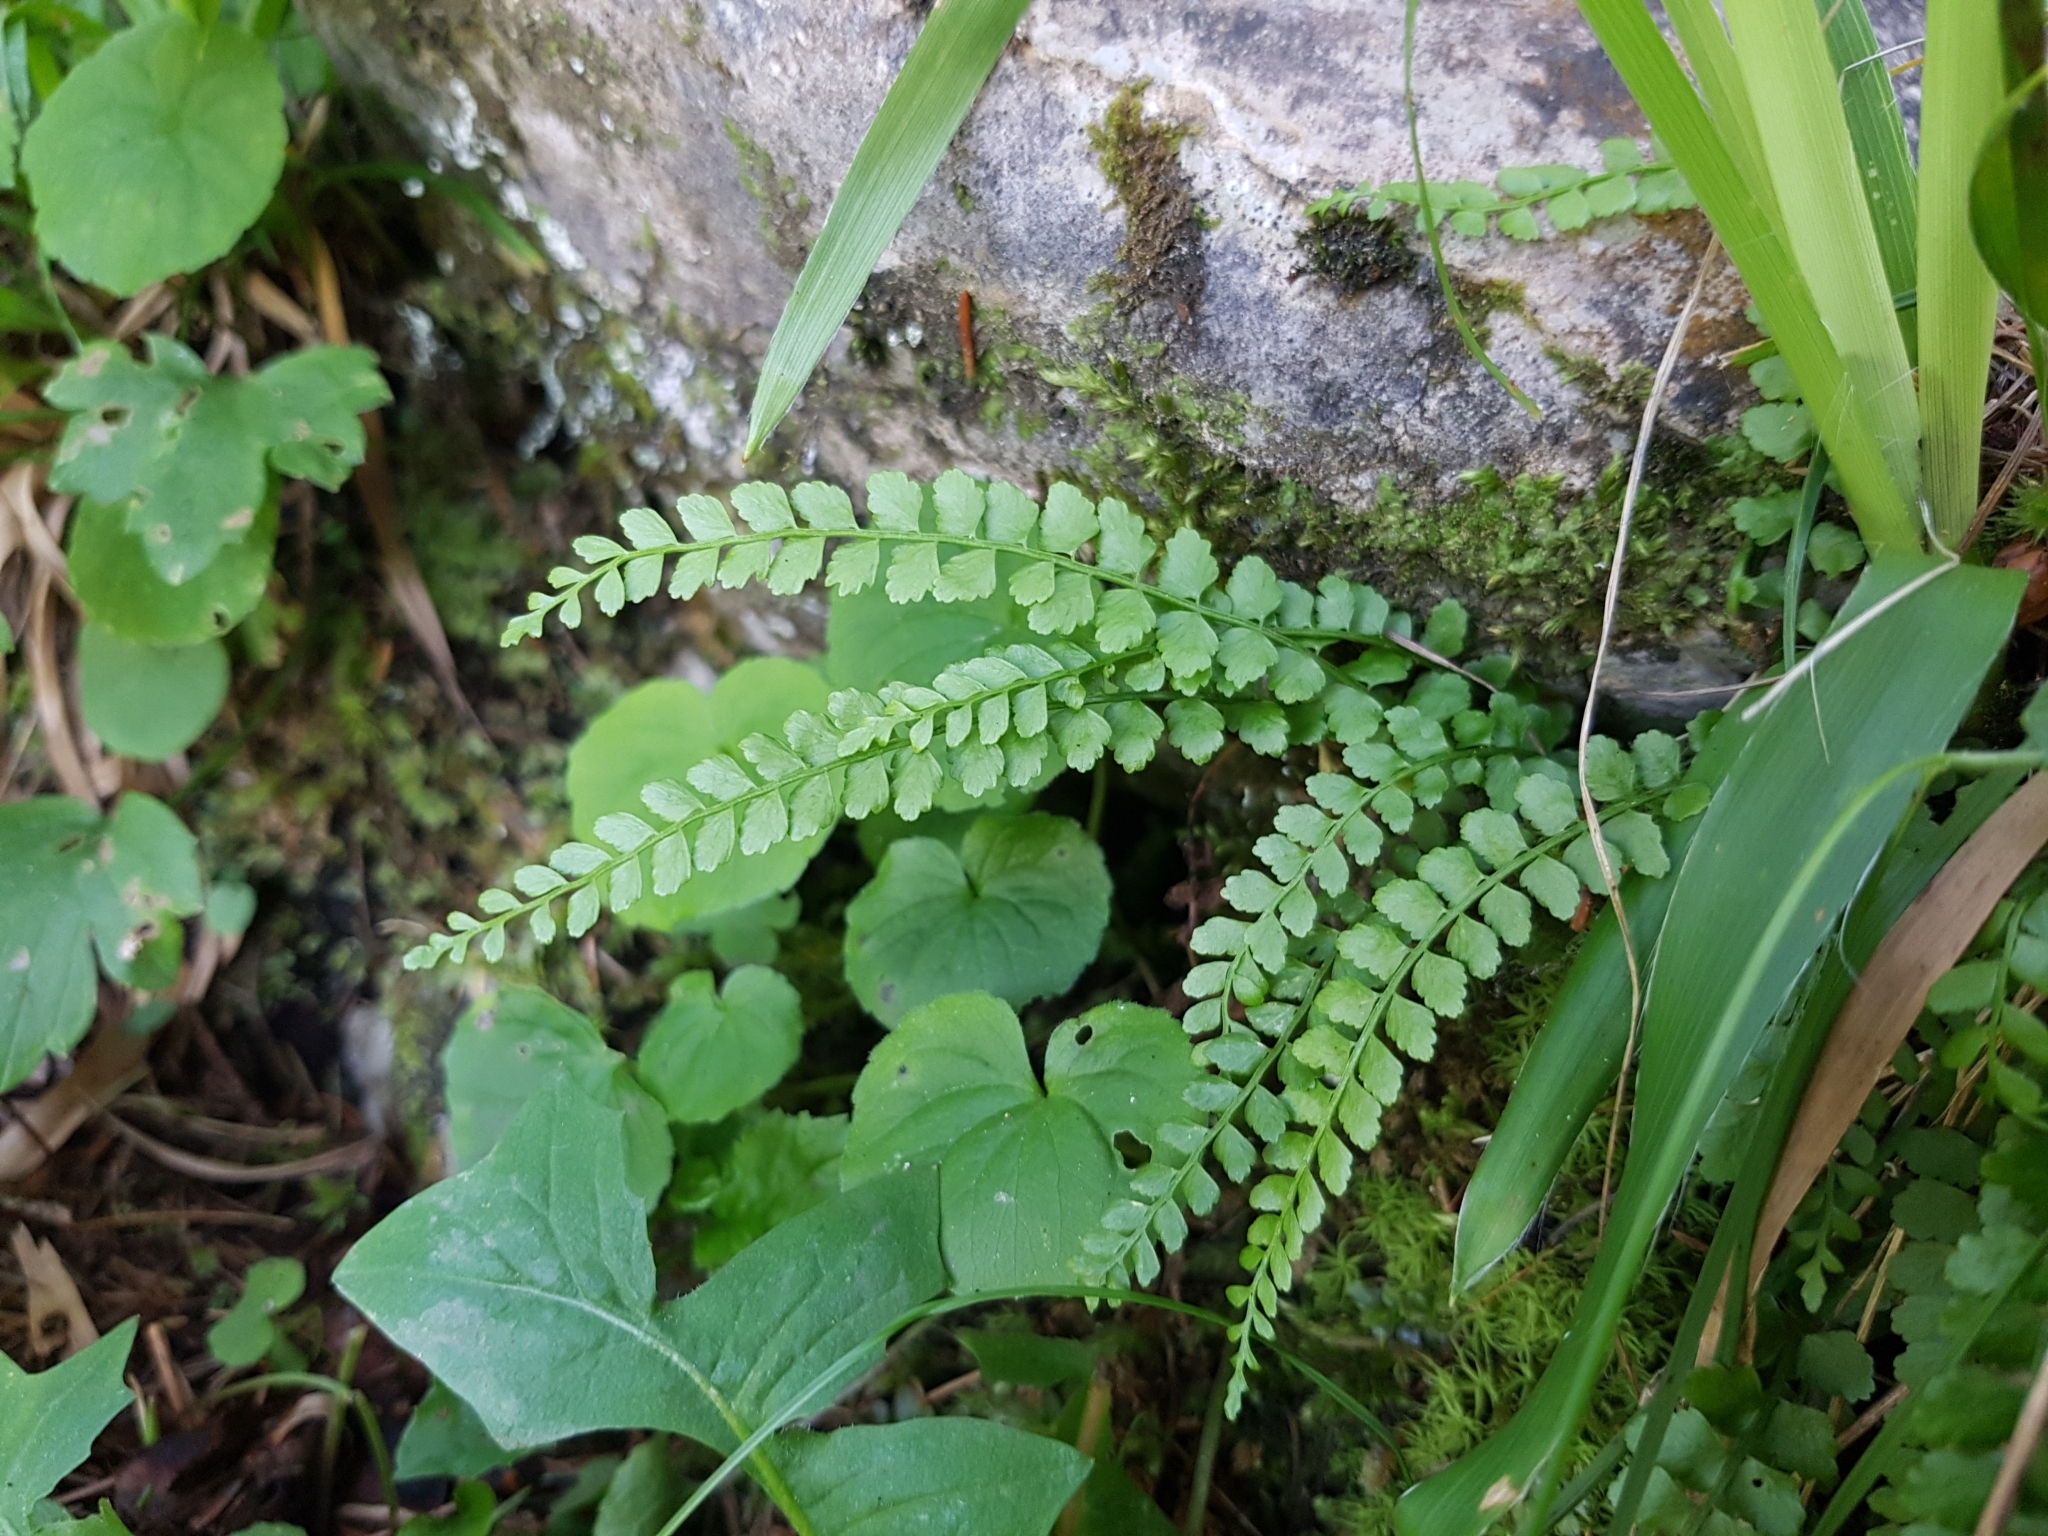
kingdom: Plantae
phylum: Tracheophyta
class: Polypodiopsida
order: Polypodiales
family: Aspleniaceae
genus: Asplenium
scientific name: Asplenium viride
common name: Green spleenwort
